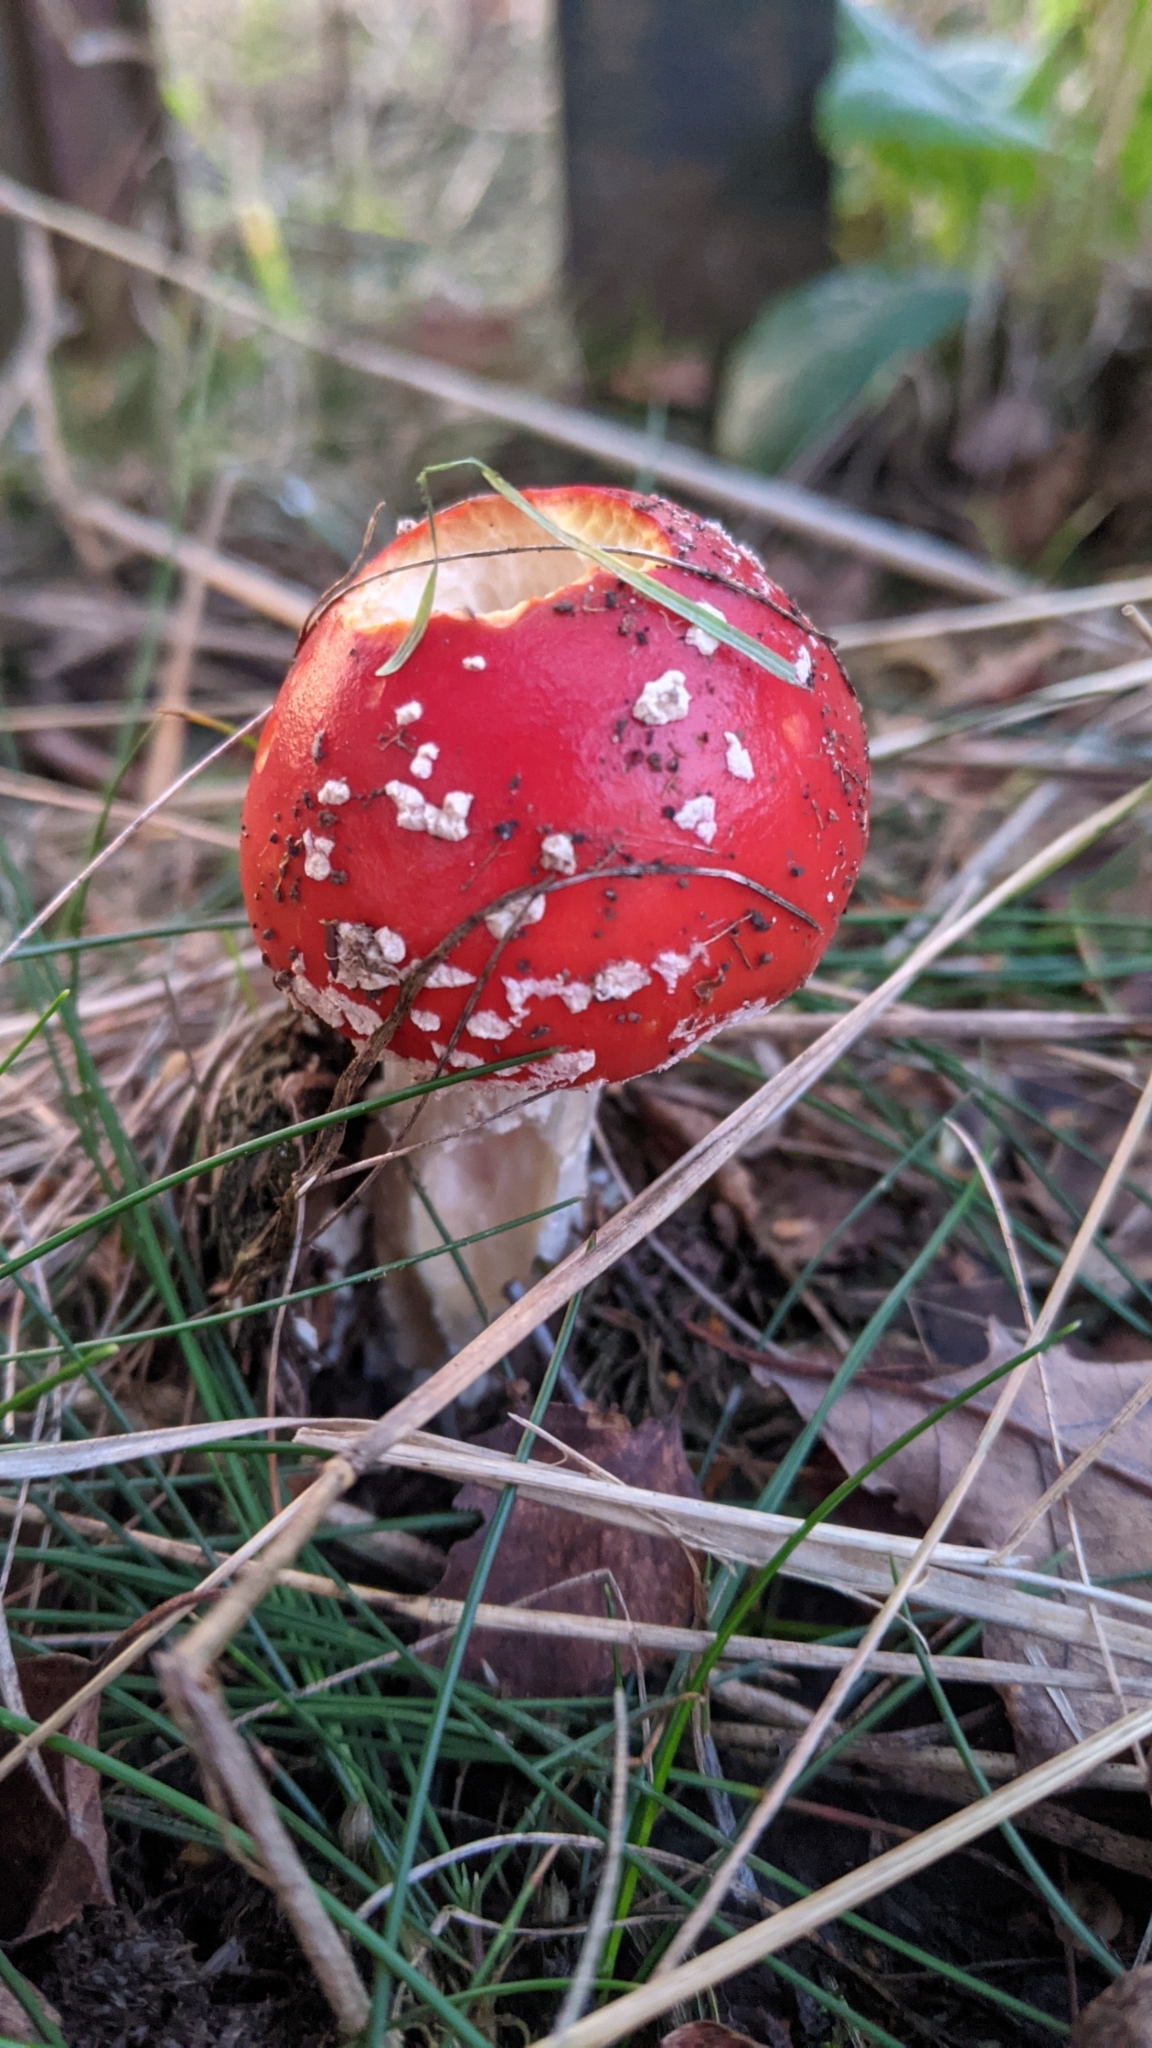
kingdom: Fungi
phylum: Basidiomycota
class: Agaricomycetes
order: Agaricales
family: Amanitaceae
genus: Amanita
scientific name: Amanita muscaria
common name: Fly agaric
